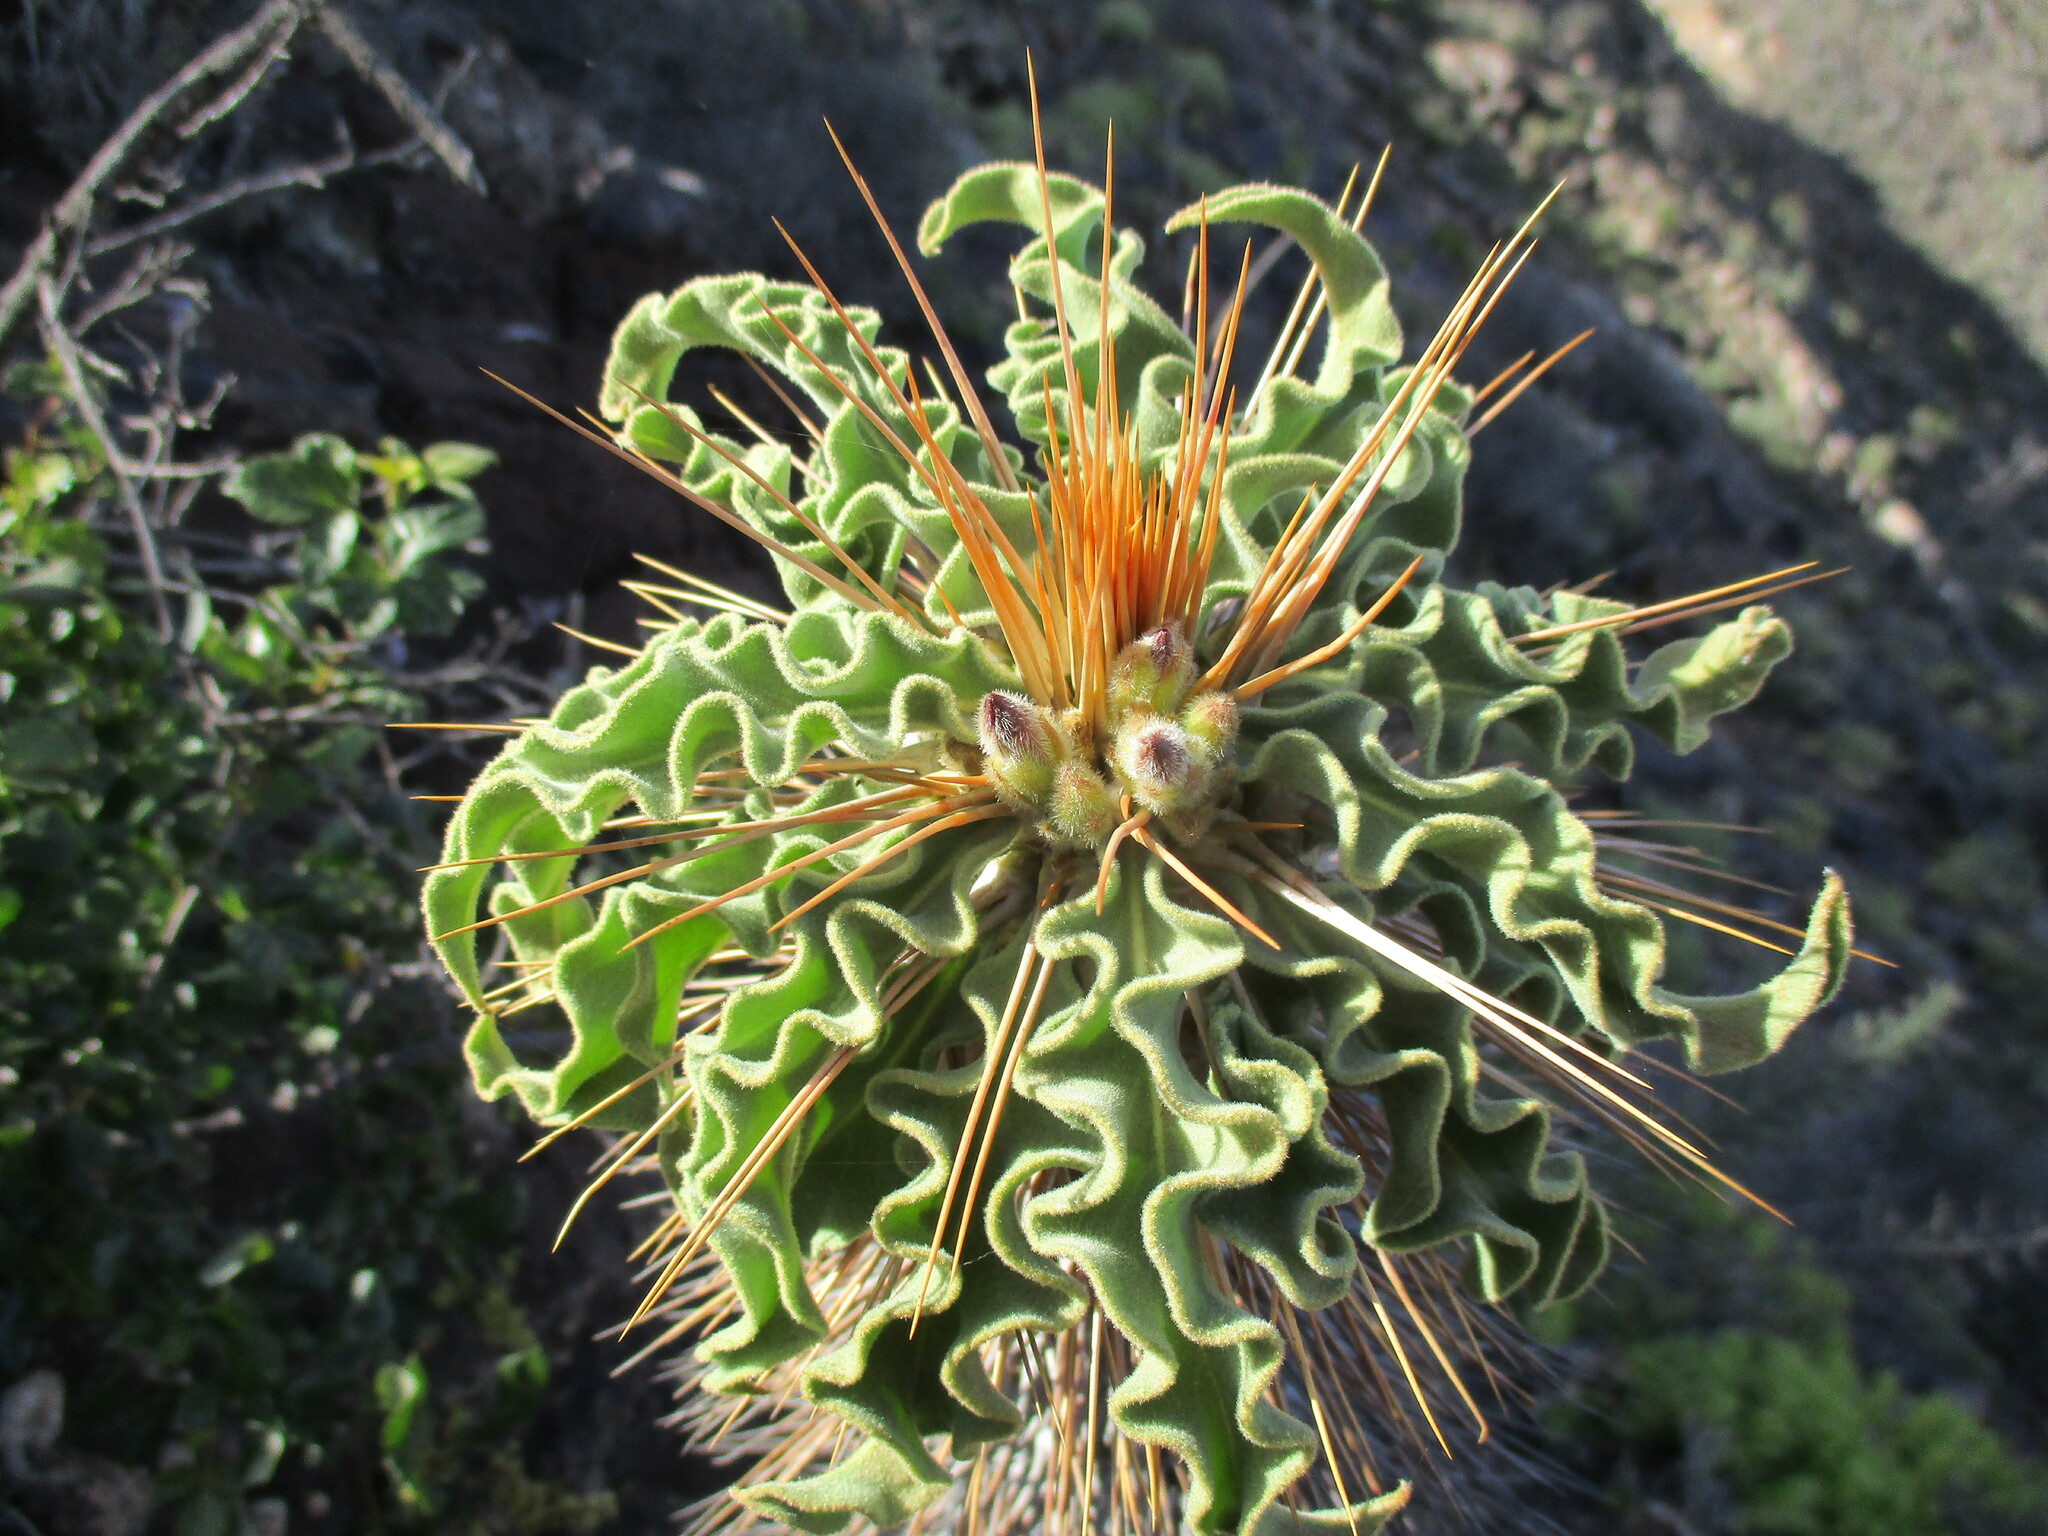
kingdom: Plantae
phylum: Tracheophyta
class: Magnoliopsida
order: Gentianales
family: Apocynaceae
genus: Pachypodium
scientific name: Pachypodium namaquanum
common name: Elephant's trunk
